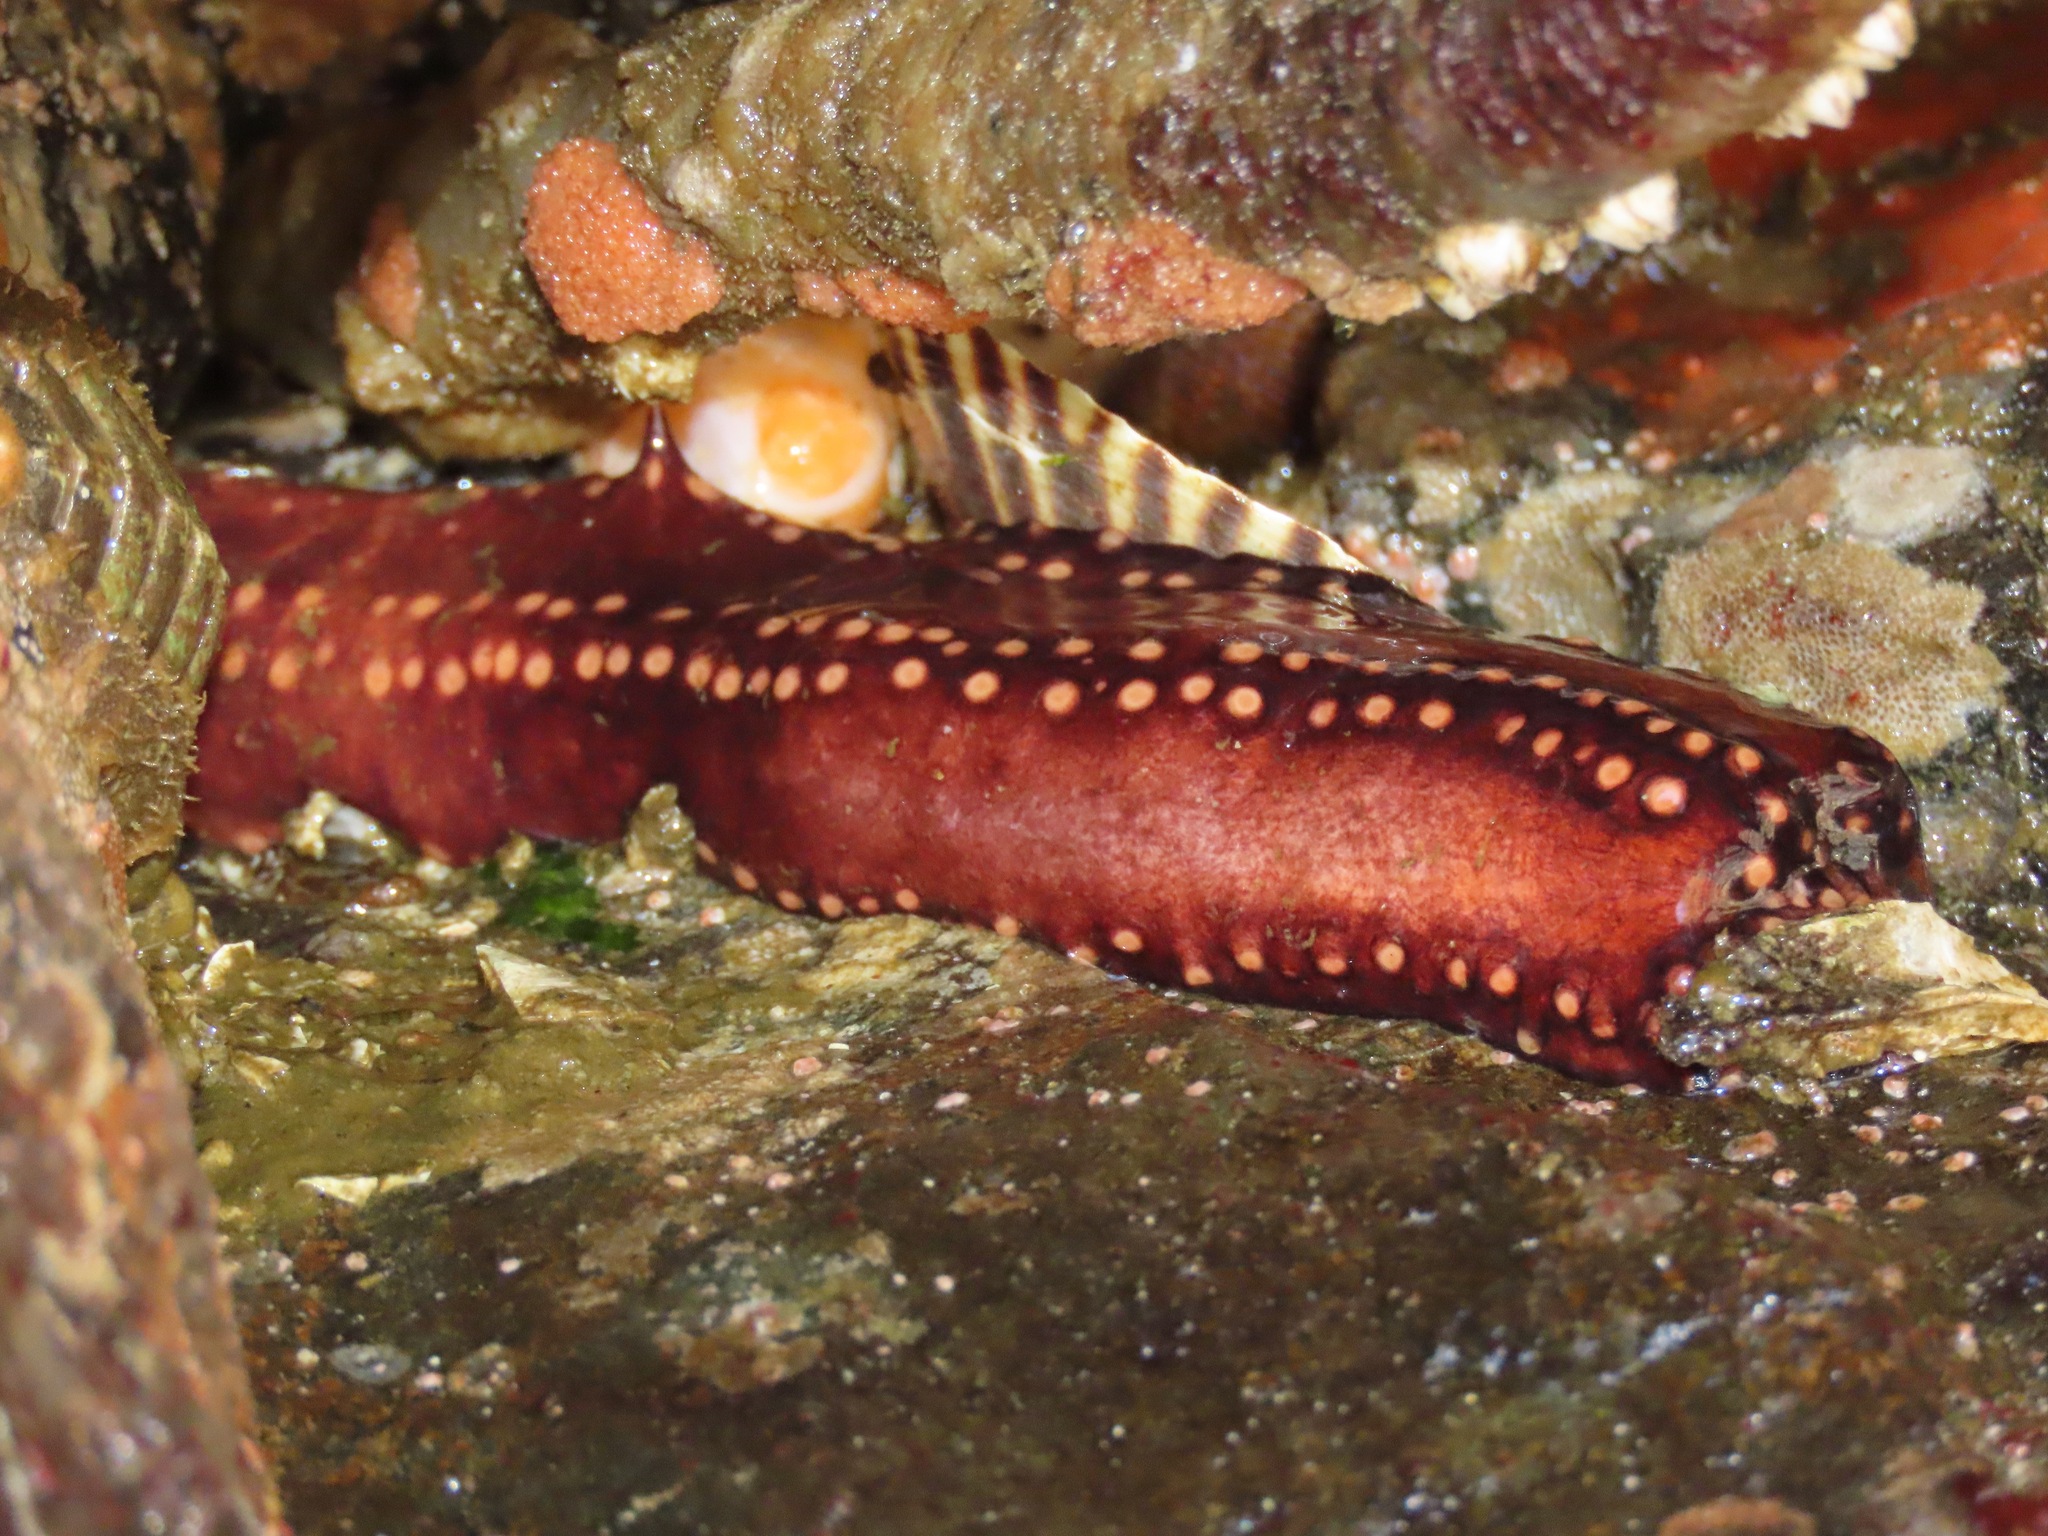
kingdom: Animalia
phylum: Echinodermata
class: Holothuroidea
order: Dendrochirotida
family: Cucumariidae
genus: Cucumaria
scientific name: Cucumaria miniata
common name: Orange sea cucumber
